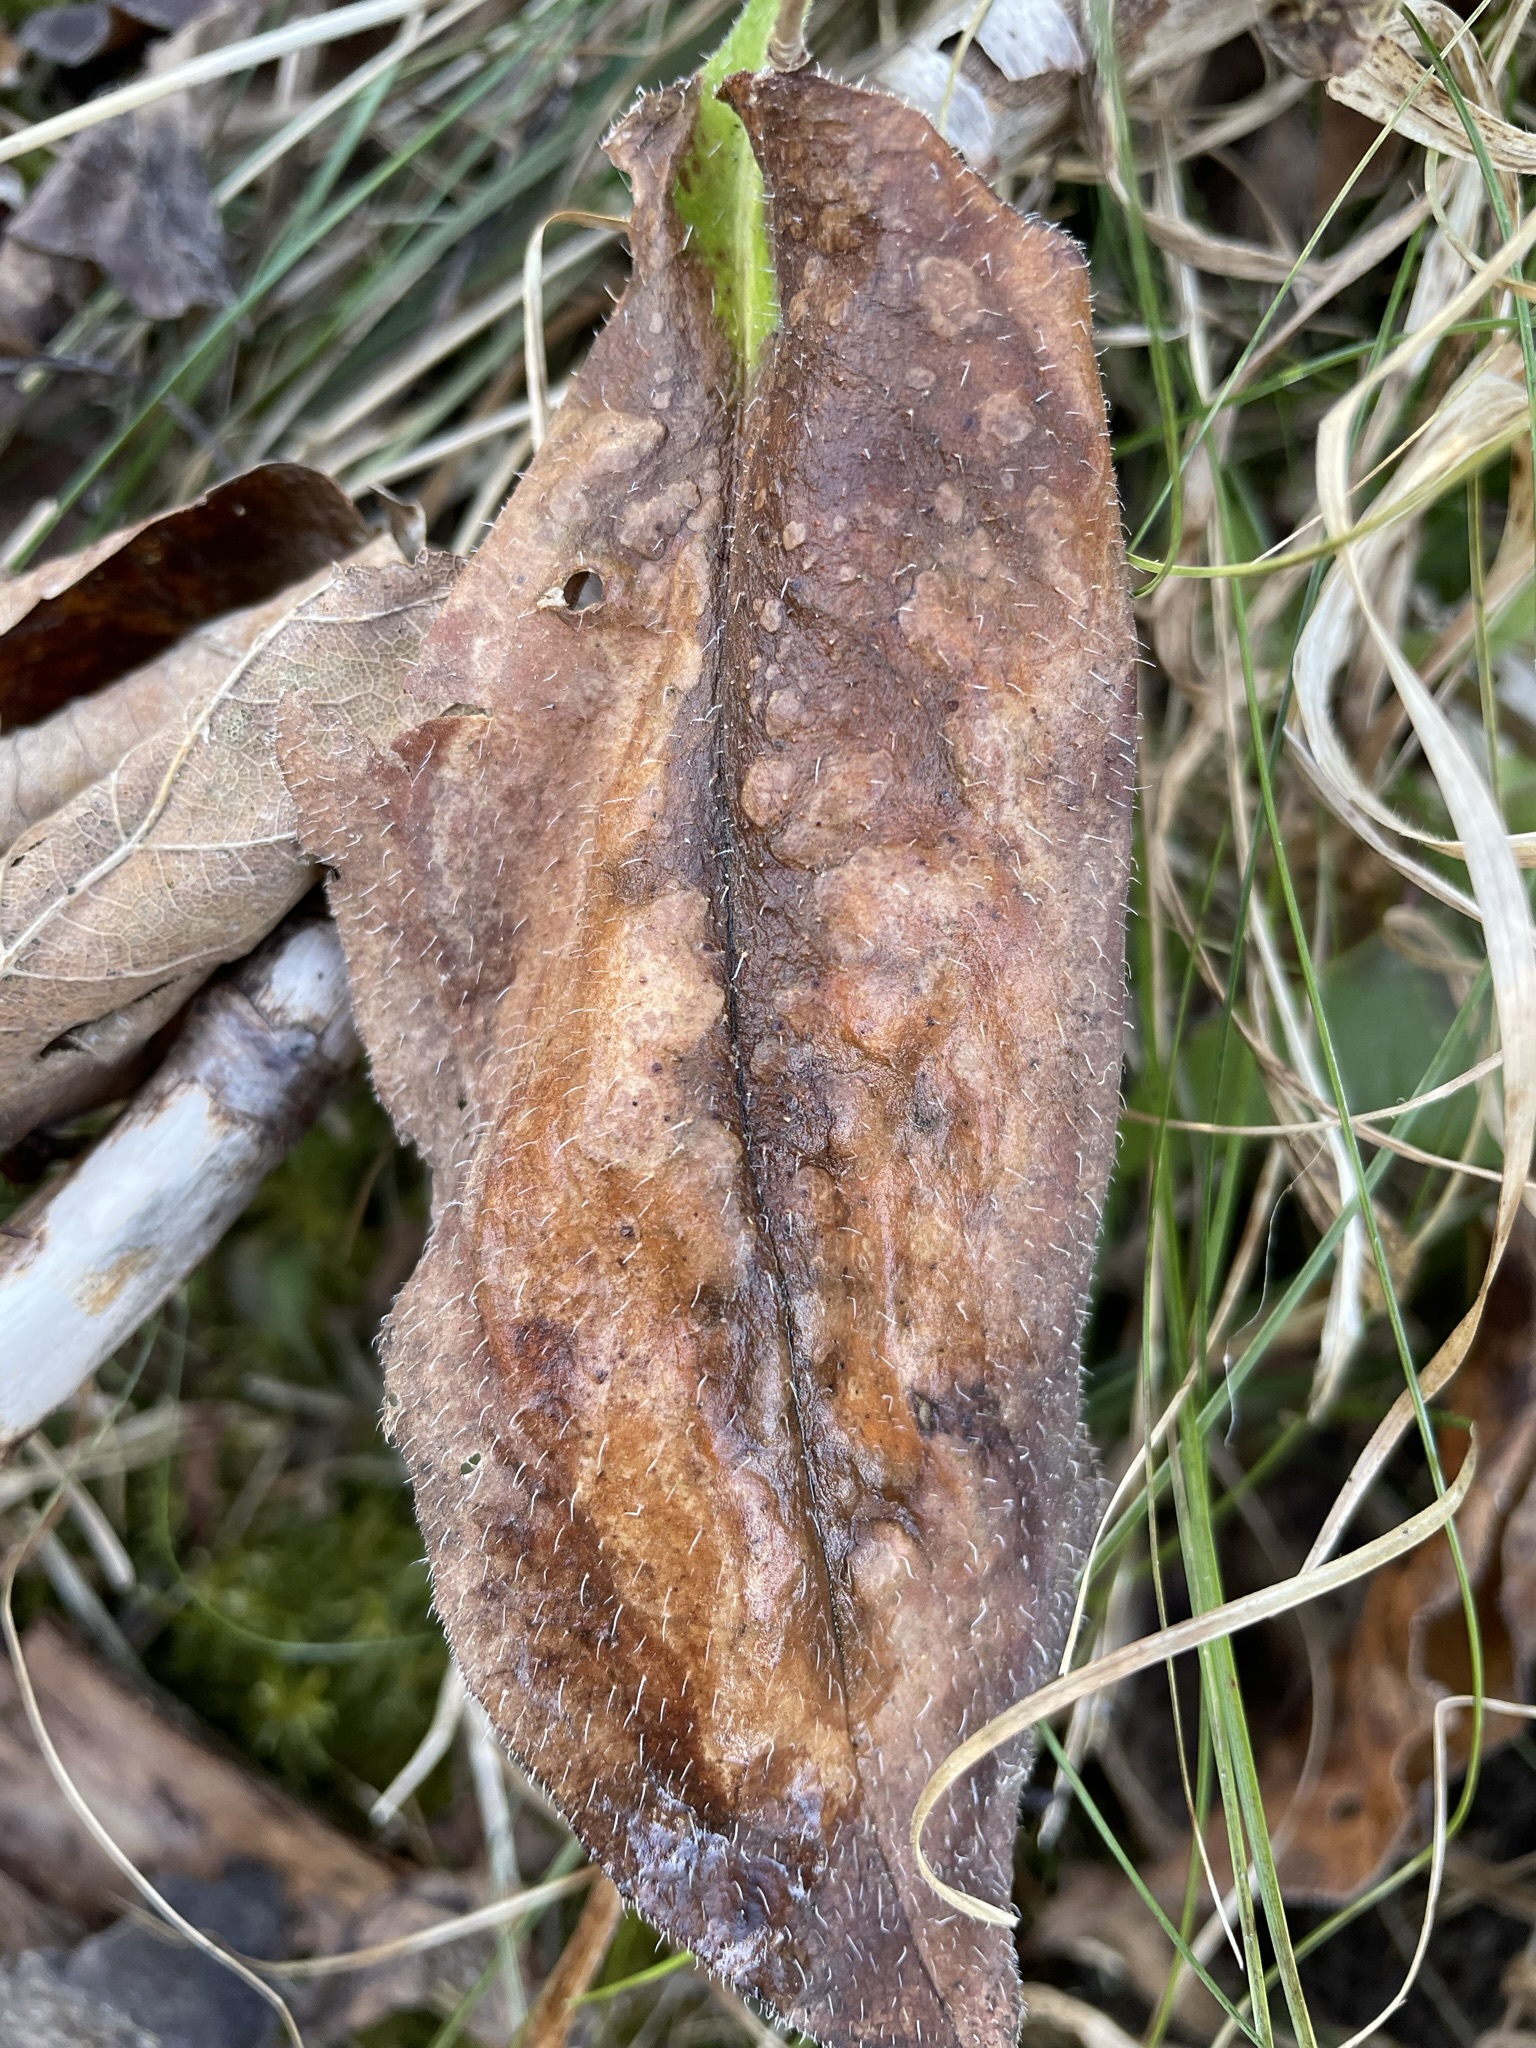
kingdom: Plantae
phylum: Tracheophyta
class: Magnoliopsida
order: Boraginales
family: Boraginaceae
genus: Pulmonaria
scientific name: Pulmonaria officinalis
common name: Lungwort
